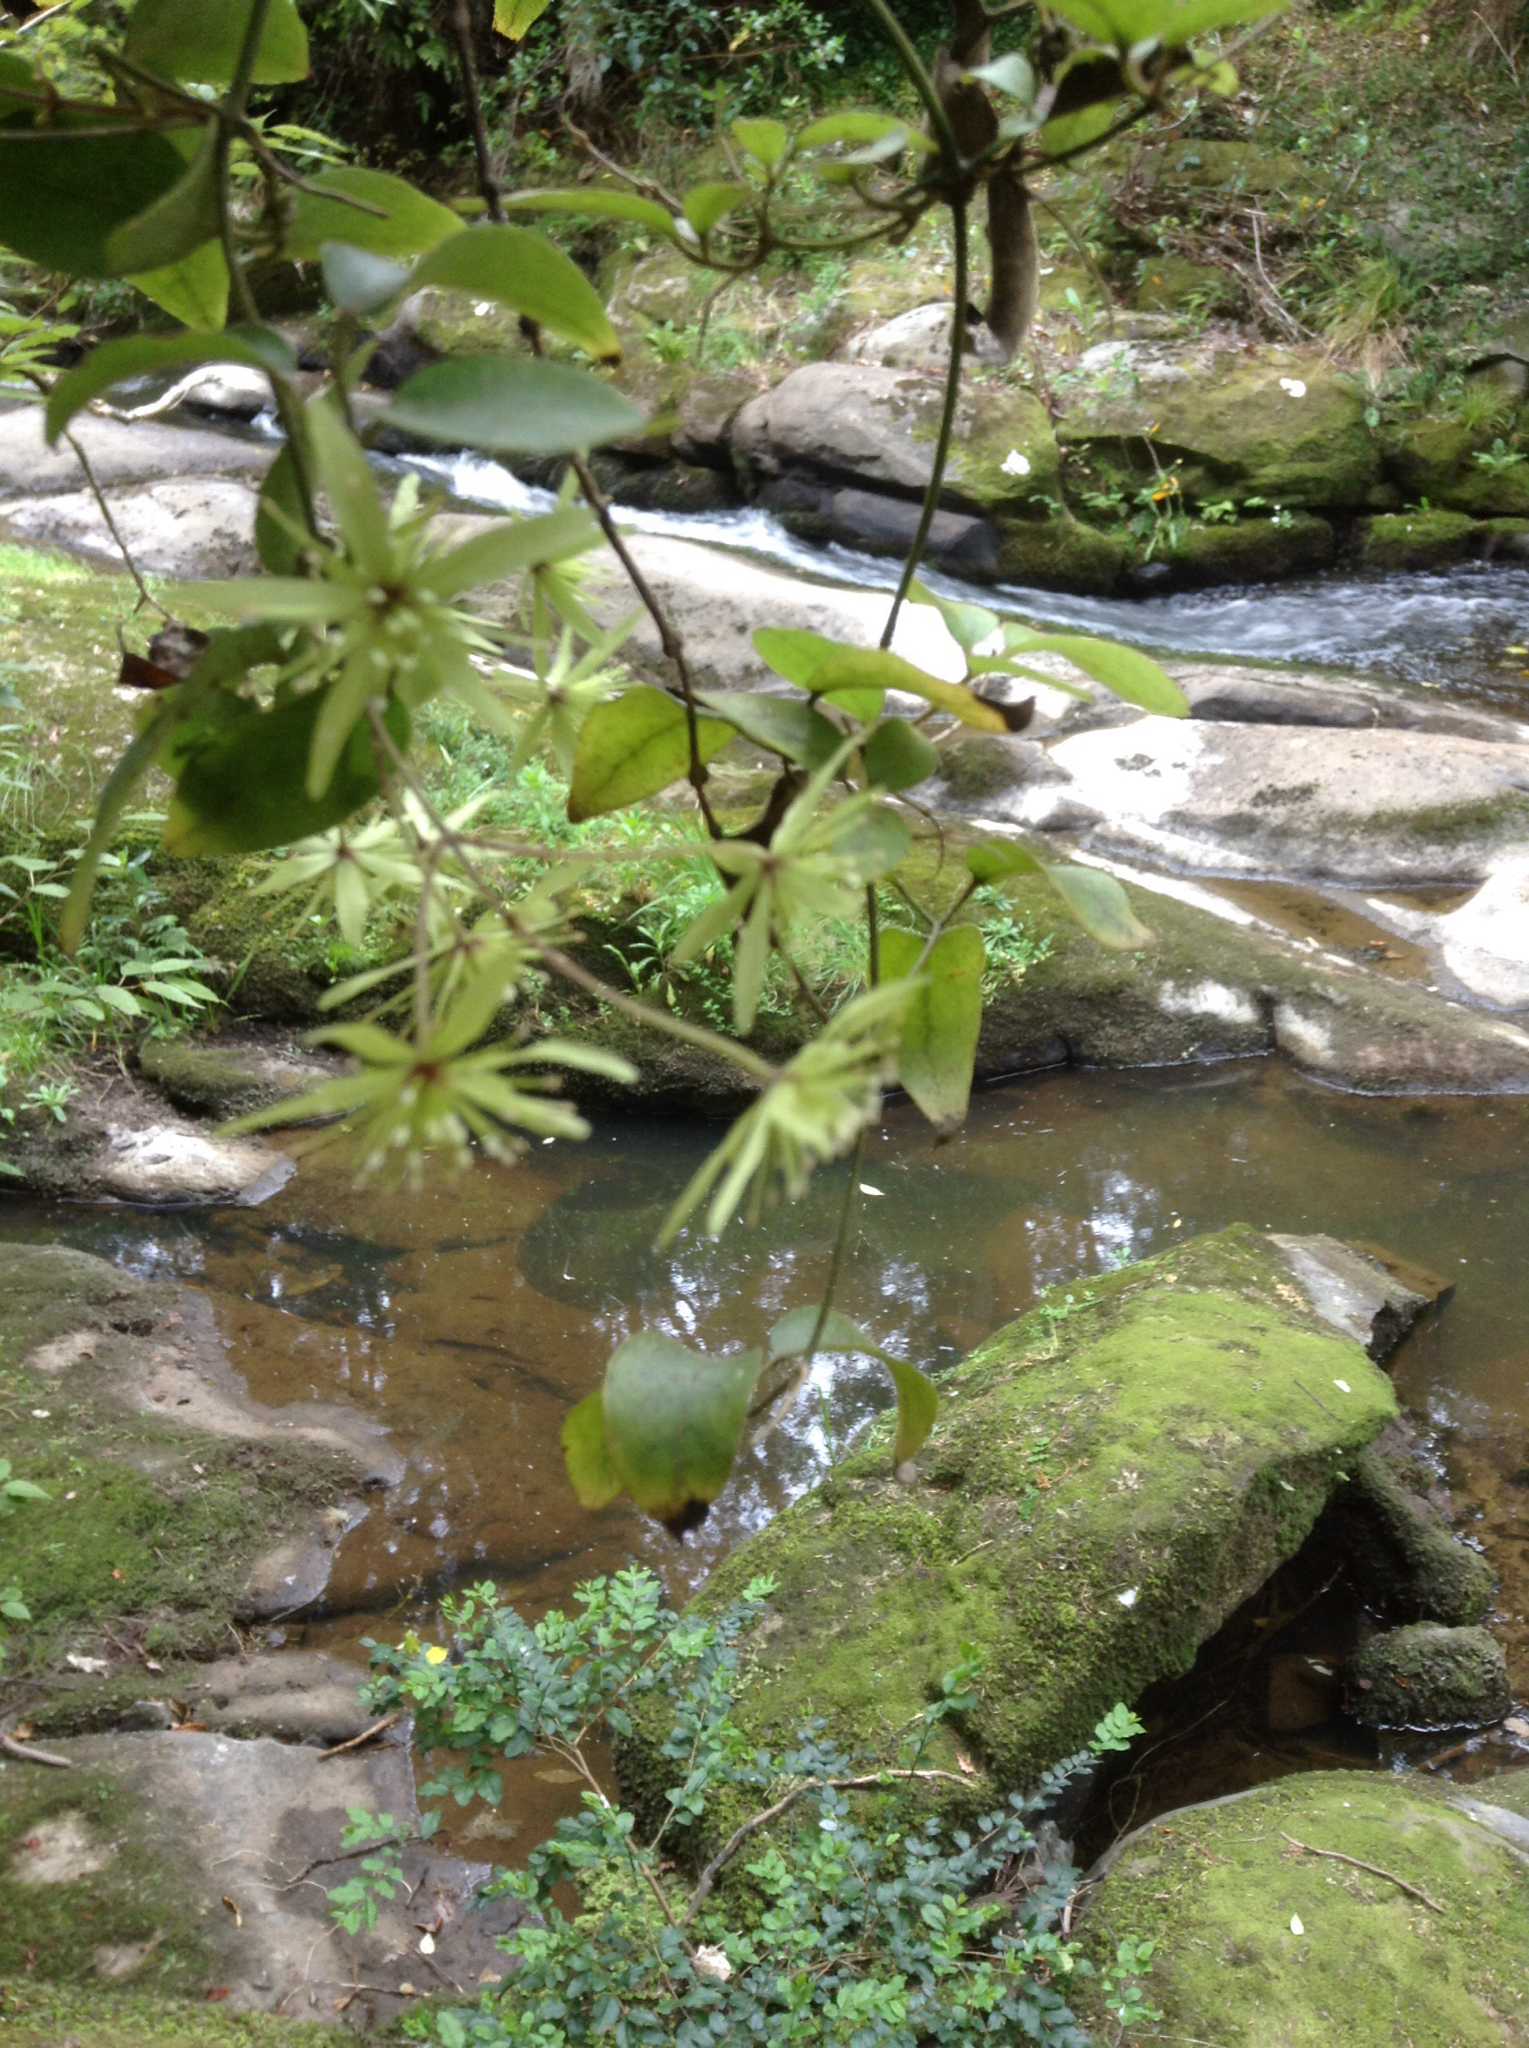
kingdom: Plantae
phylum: Tracheophyta
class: Magnoliopsida
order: Ranunculales
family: Ranunculaceae
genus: Clematis
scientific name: Clematis cunninghamii
